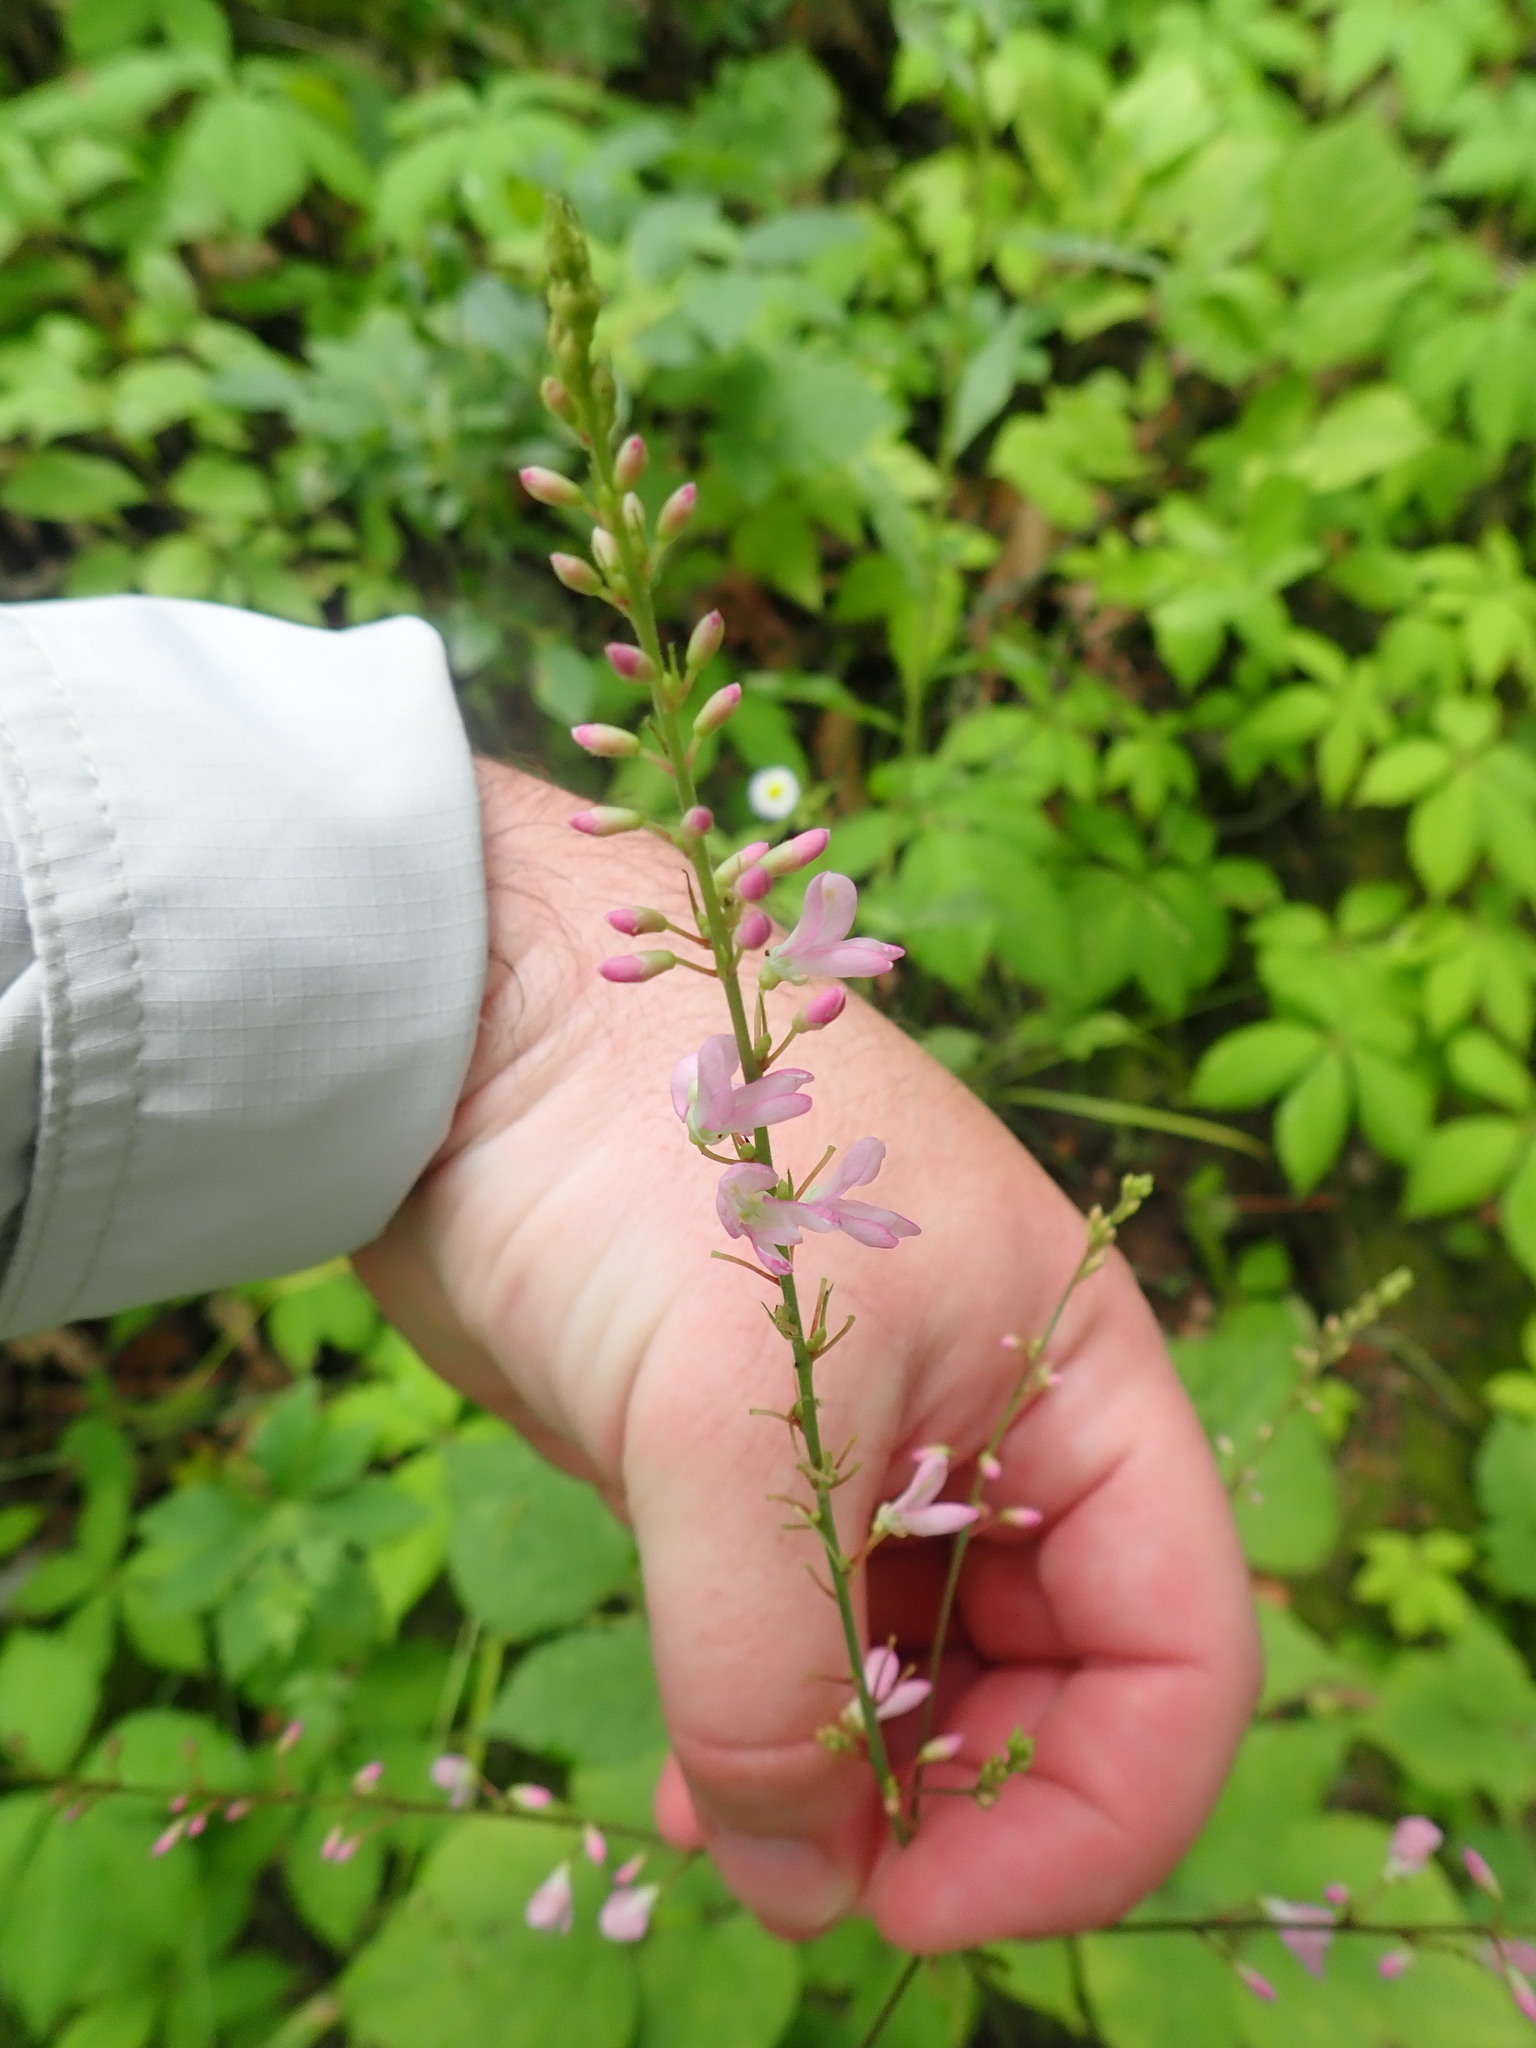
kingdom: Plantae
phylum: Tracheophyta
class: Magnoliopsida
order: Fabales
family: Fabaceae
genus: Hylodesmum
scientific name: Hylodesmum glutinosum
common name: Clustered-leaved tick-trefoil
